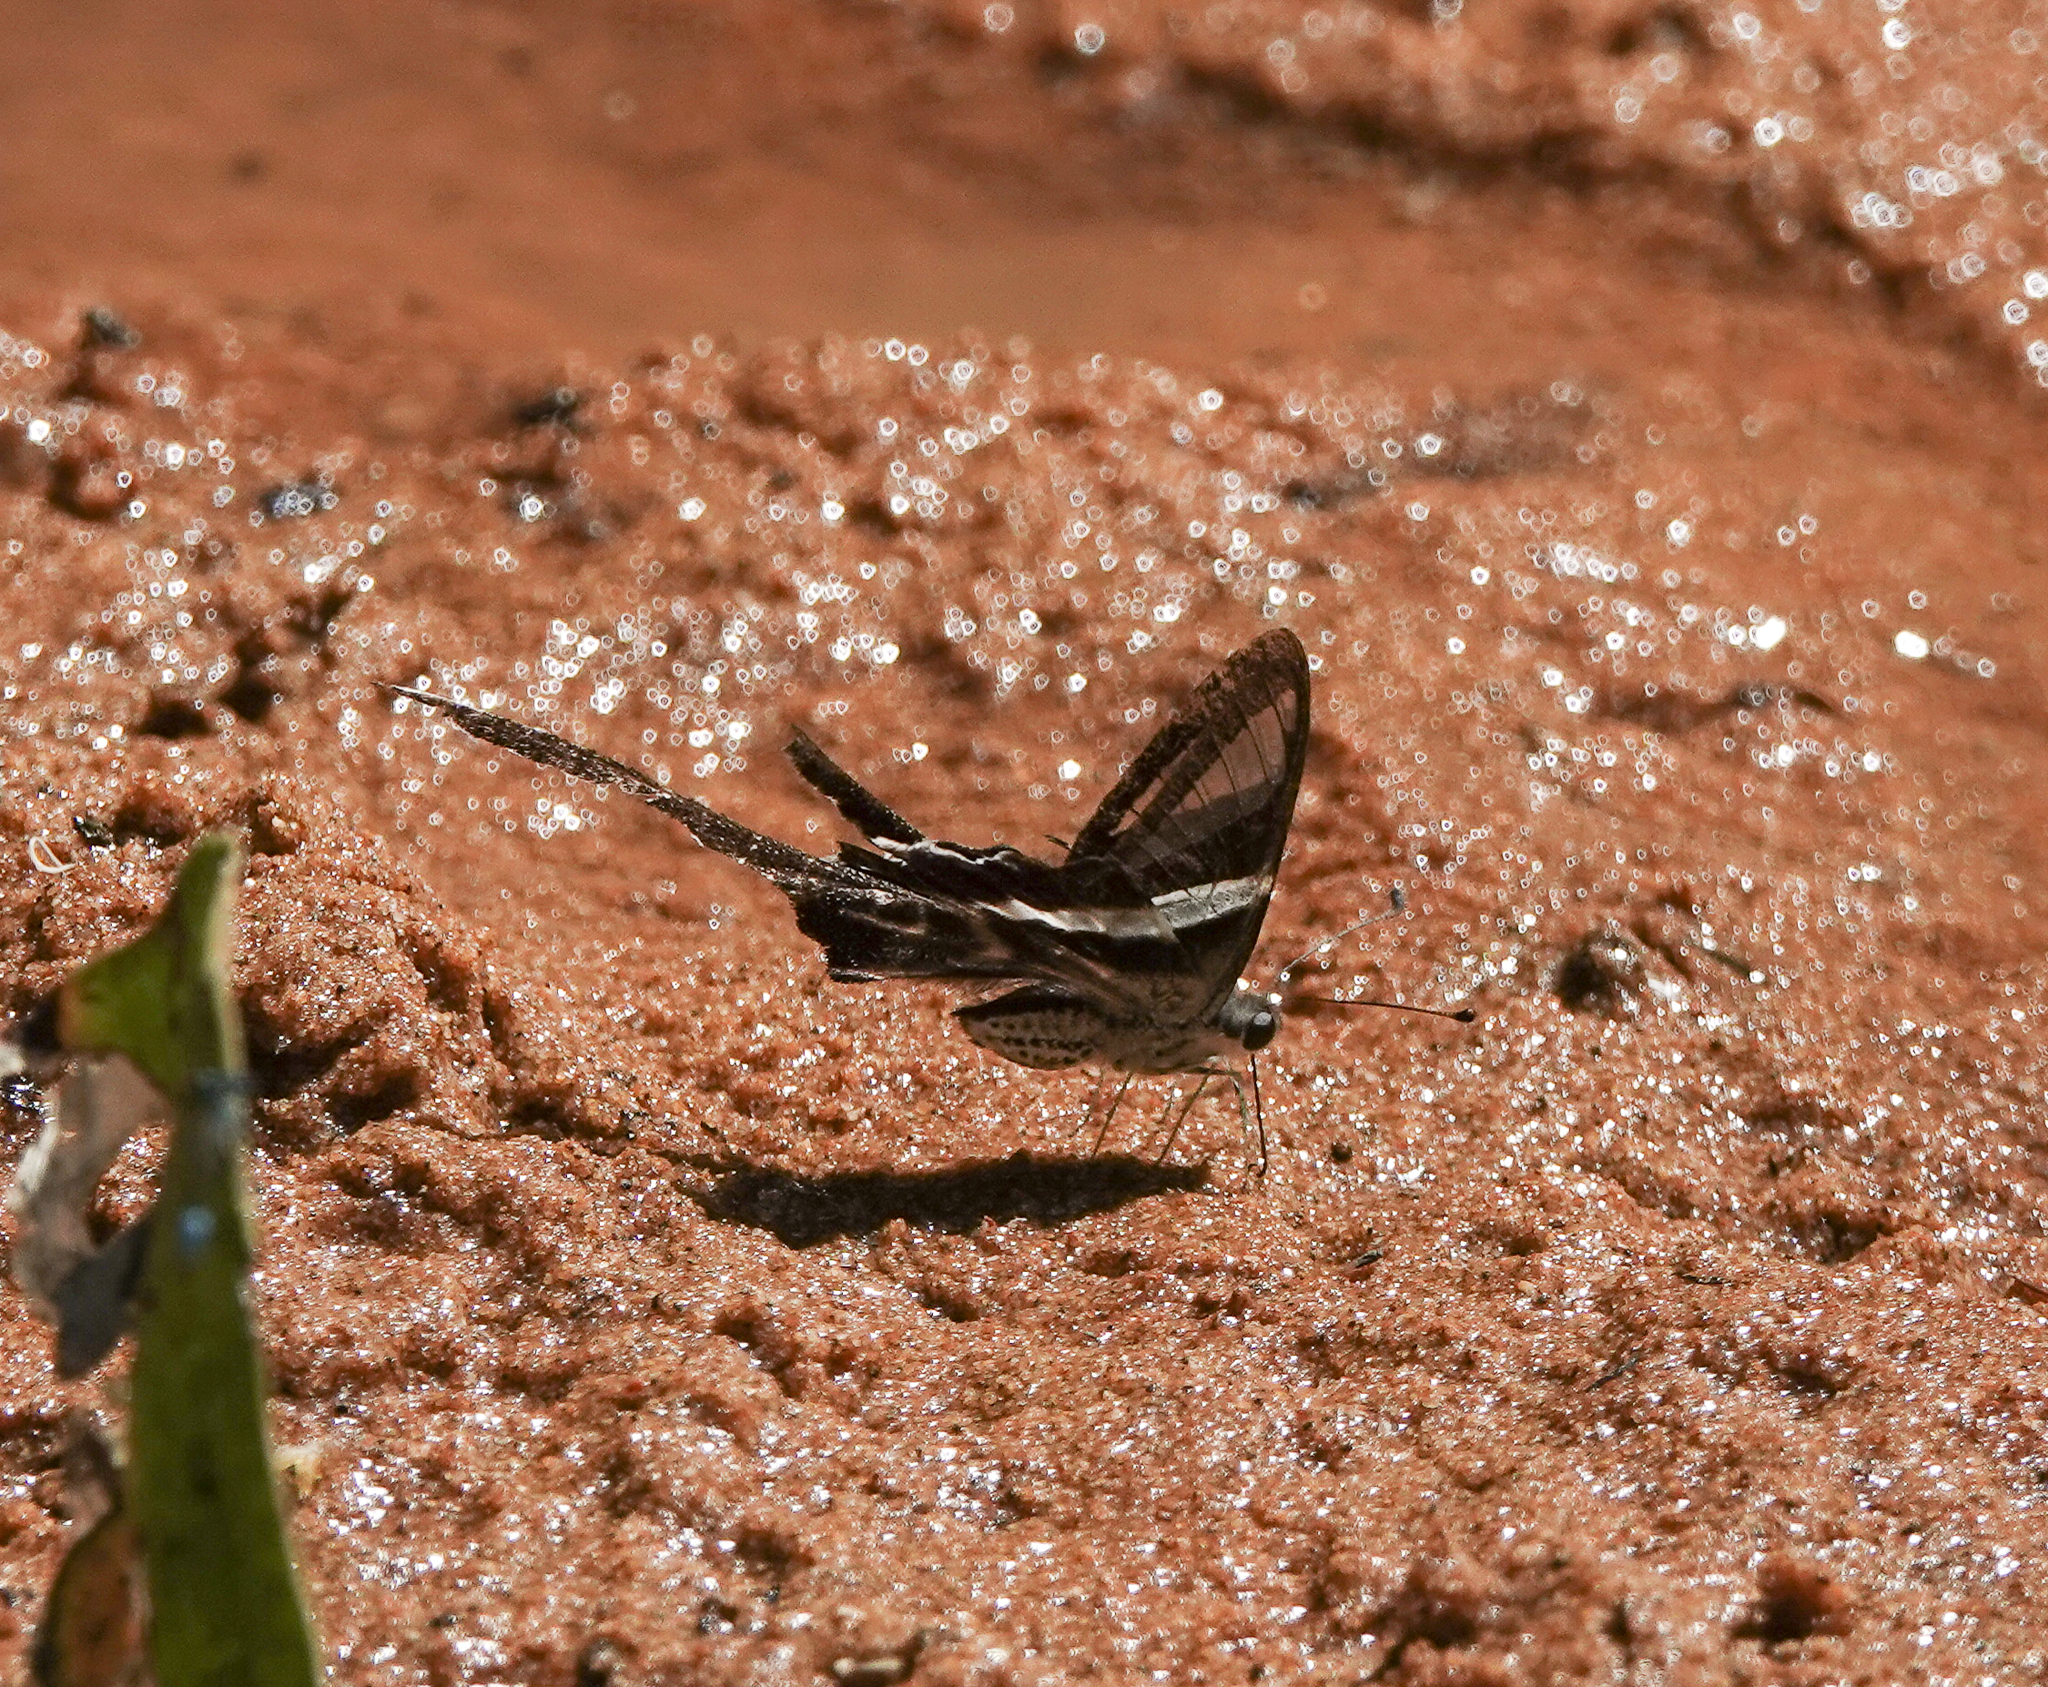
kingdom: Animalia
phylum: Arthropoda
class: Insecta
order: Lepidoptera
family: Papilionidae
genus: Lamproptera
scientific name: Lamproptera curius
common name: White dragontail
